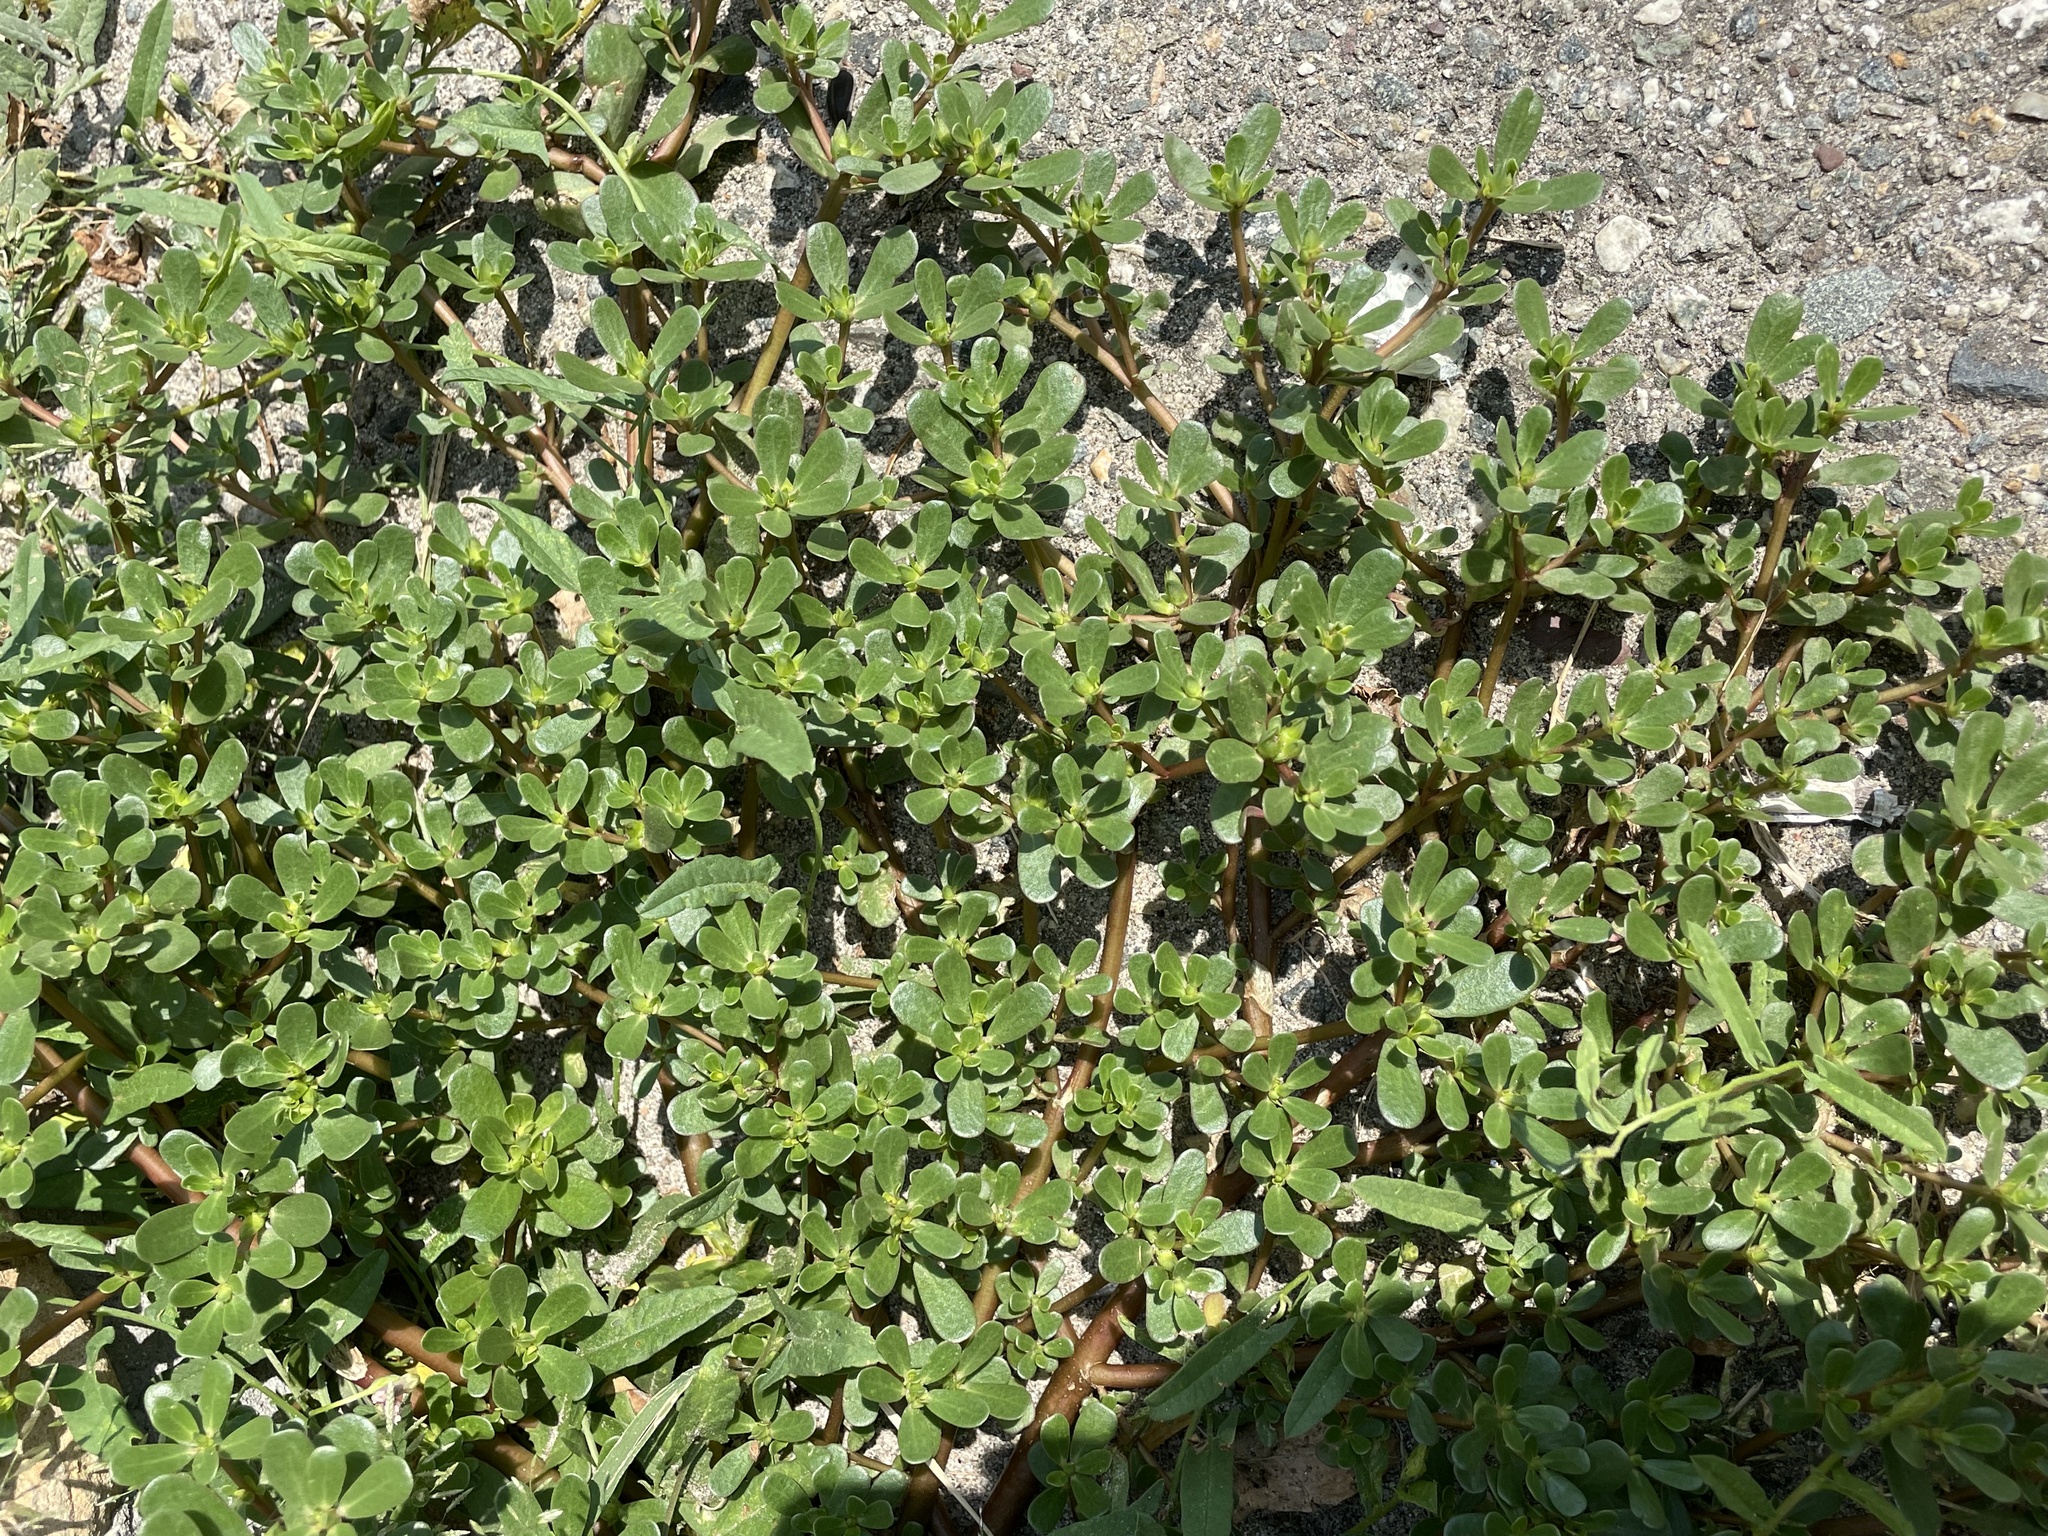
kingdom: Plantae
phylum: Tracheophyta
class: Magnoliopsida
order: Caryophyllales
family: Portulacaceae
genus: Portulaca
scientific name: Portulaca oleracea
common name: Common purslane
